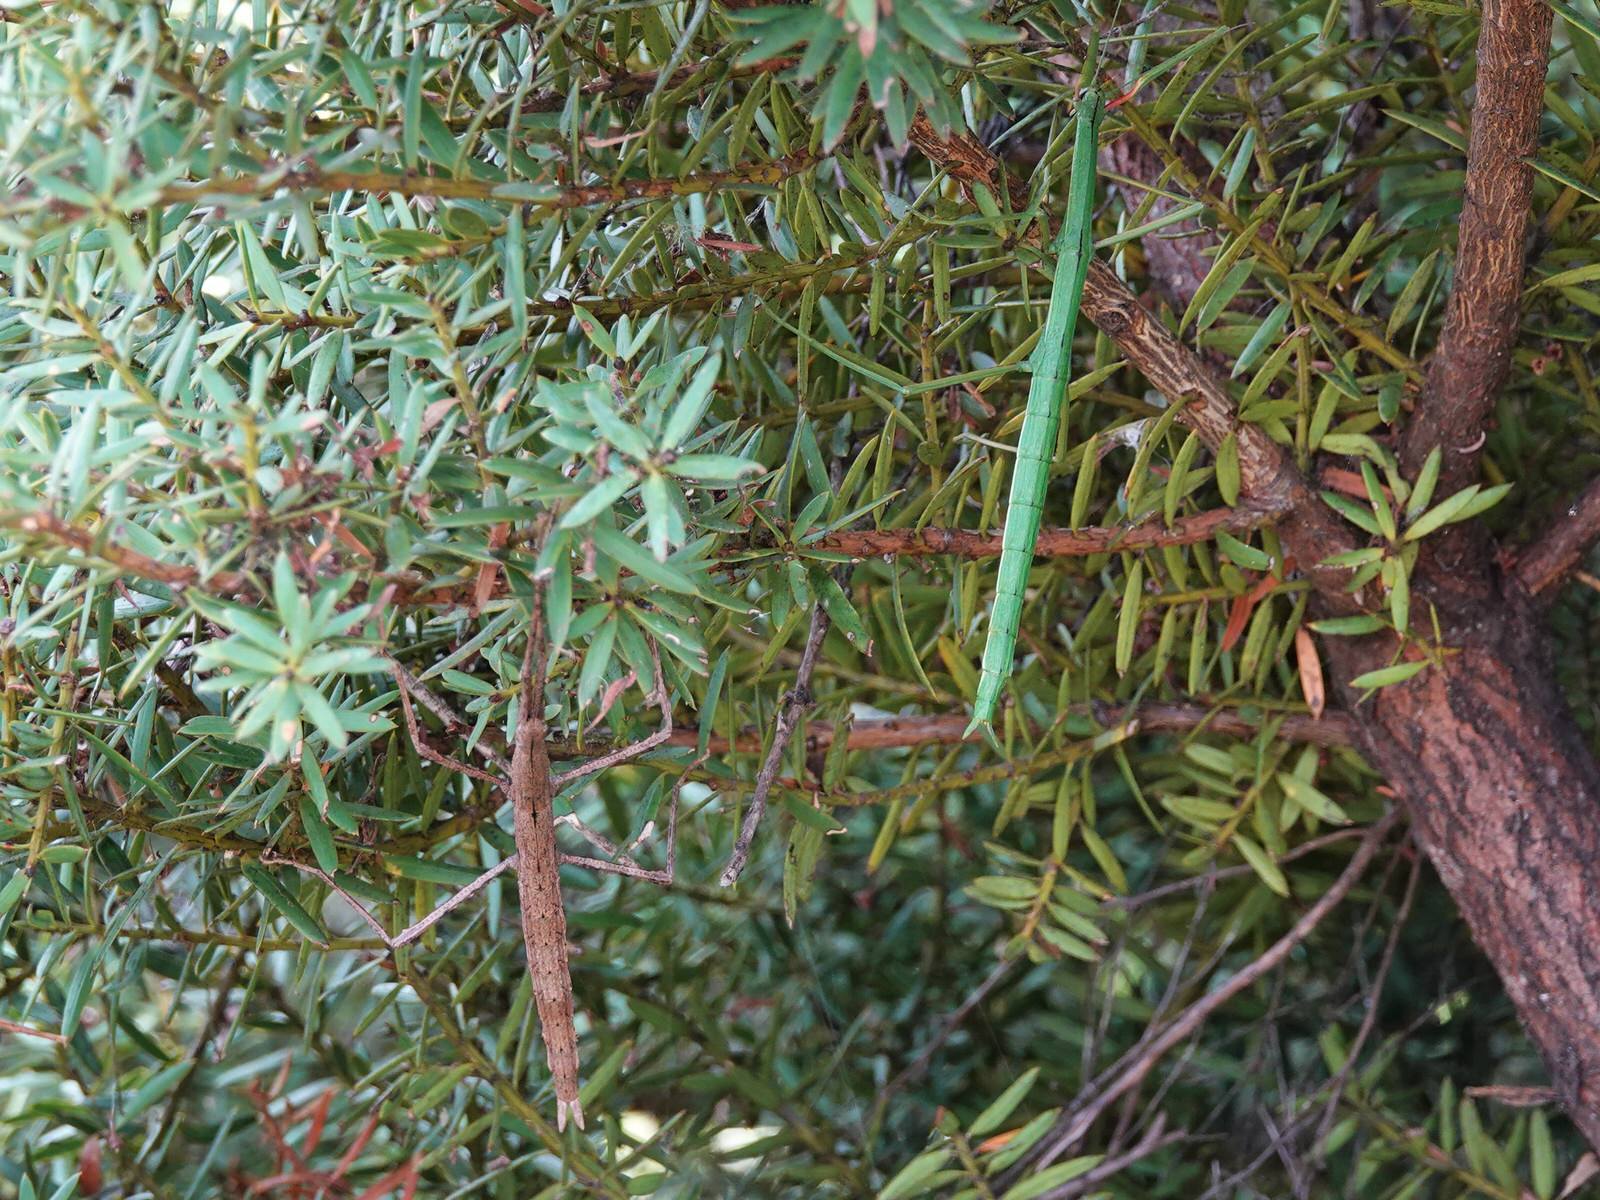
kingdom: Animalia
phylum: Arthropoda
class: Insecta
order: Phasmida
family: Phasmatidae
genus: Clitarchus
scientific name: Clitarchus hookeri
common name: Smooth stick insect
